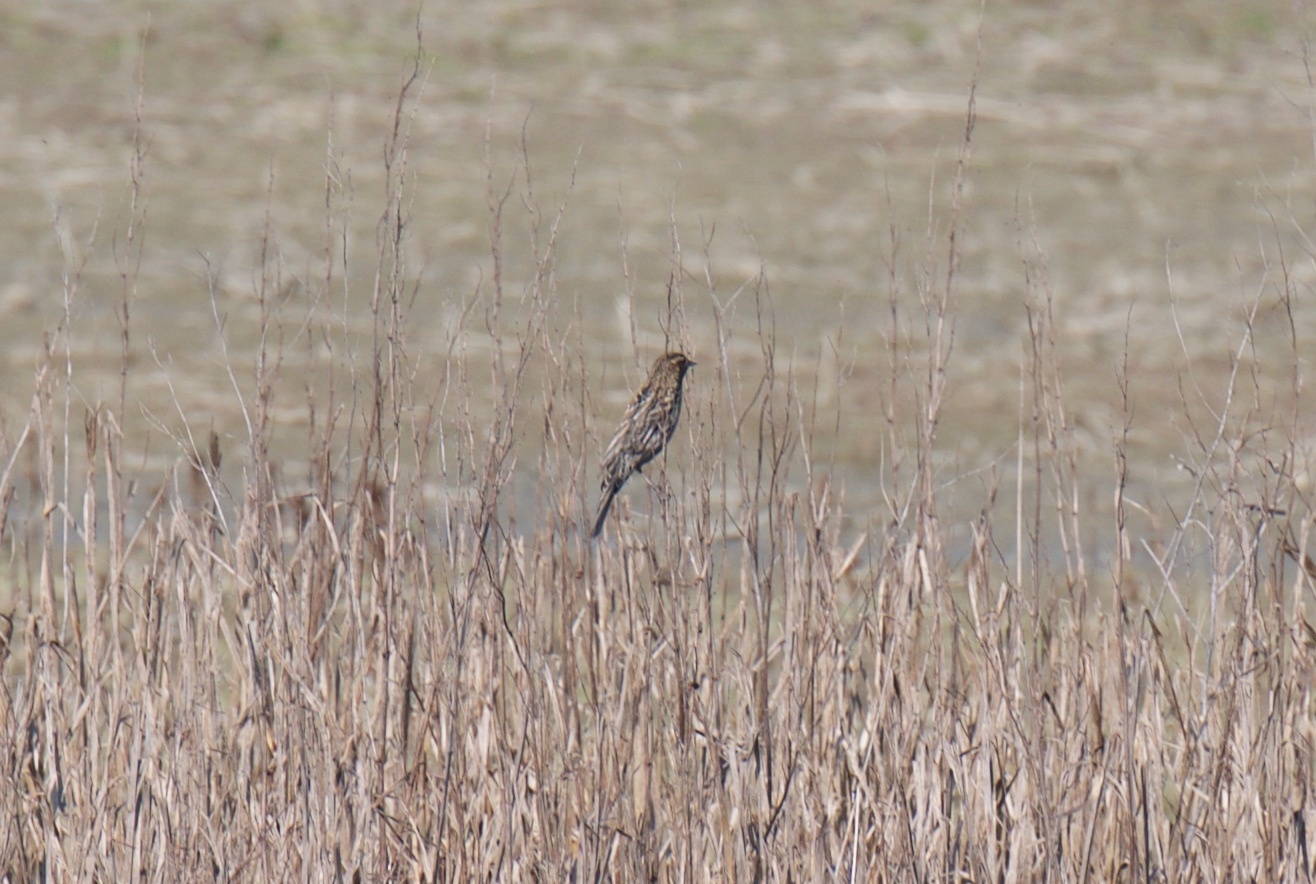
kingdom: Animalia
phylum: Chordata
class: Aves
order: Passeriformes
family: Icteridae
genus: Agelaius
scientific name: Agelaius phoeniceus
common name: Red-winged blackbird
